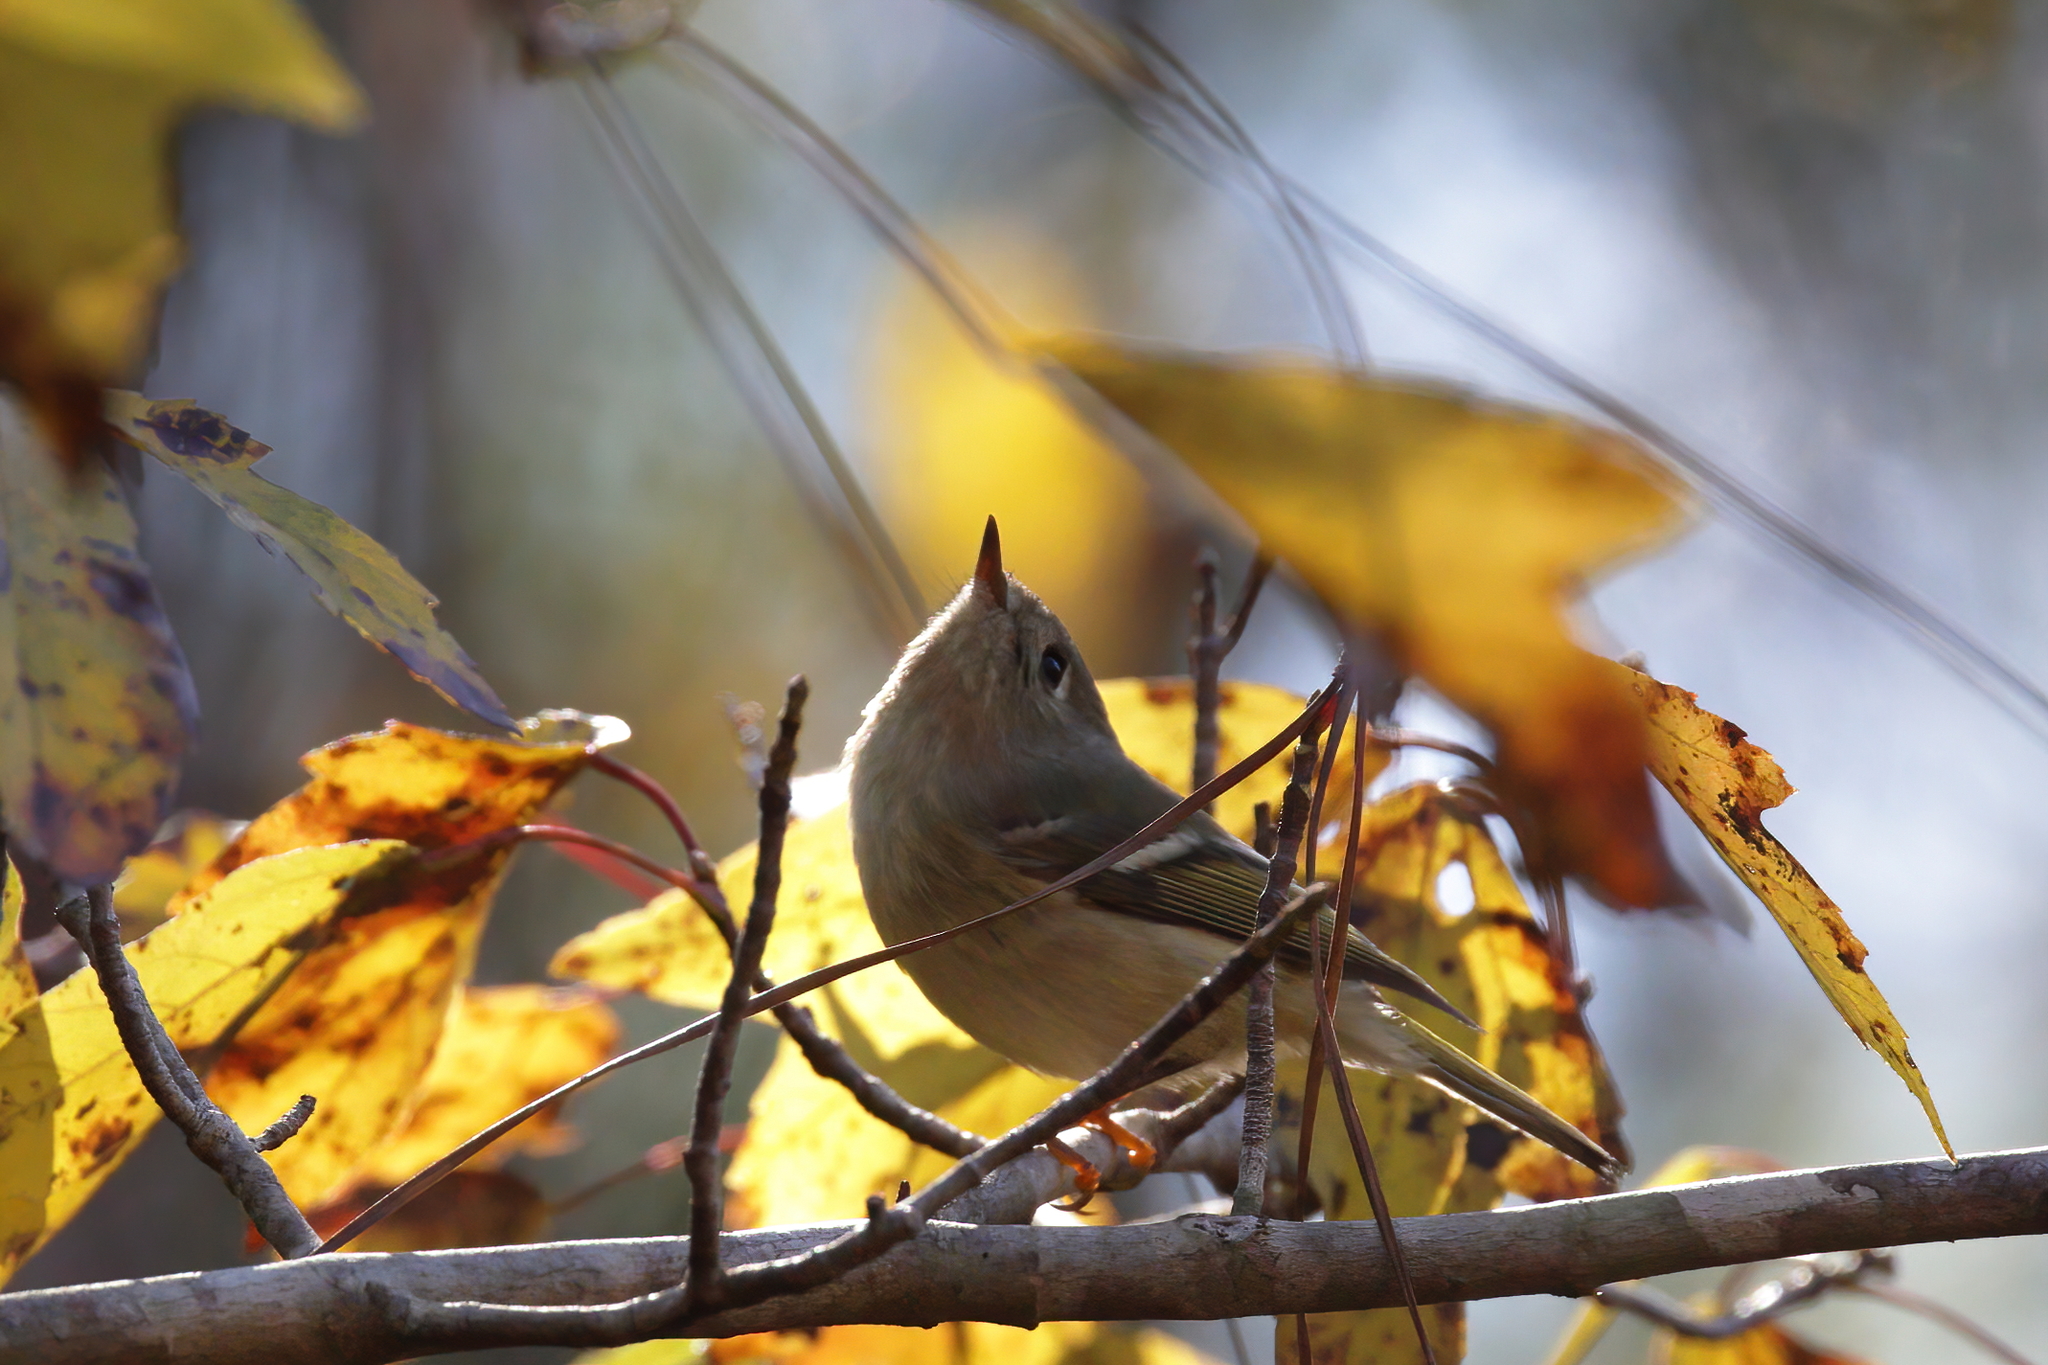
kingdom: Animalia
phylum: Chordata
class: Aves
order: Passeriformes
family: Regulidae
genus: Regulus
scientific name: Regulus calendula
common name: Ruby-crowned kinglet
